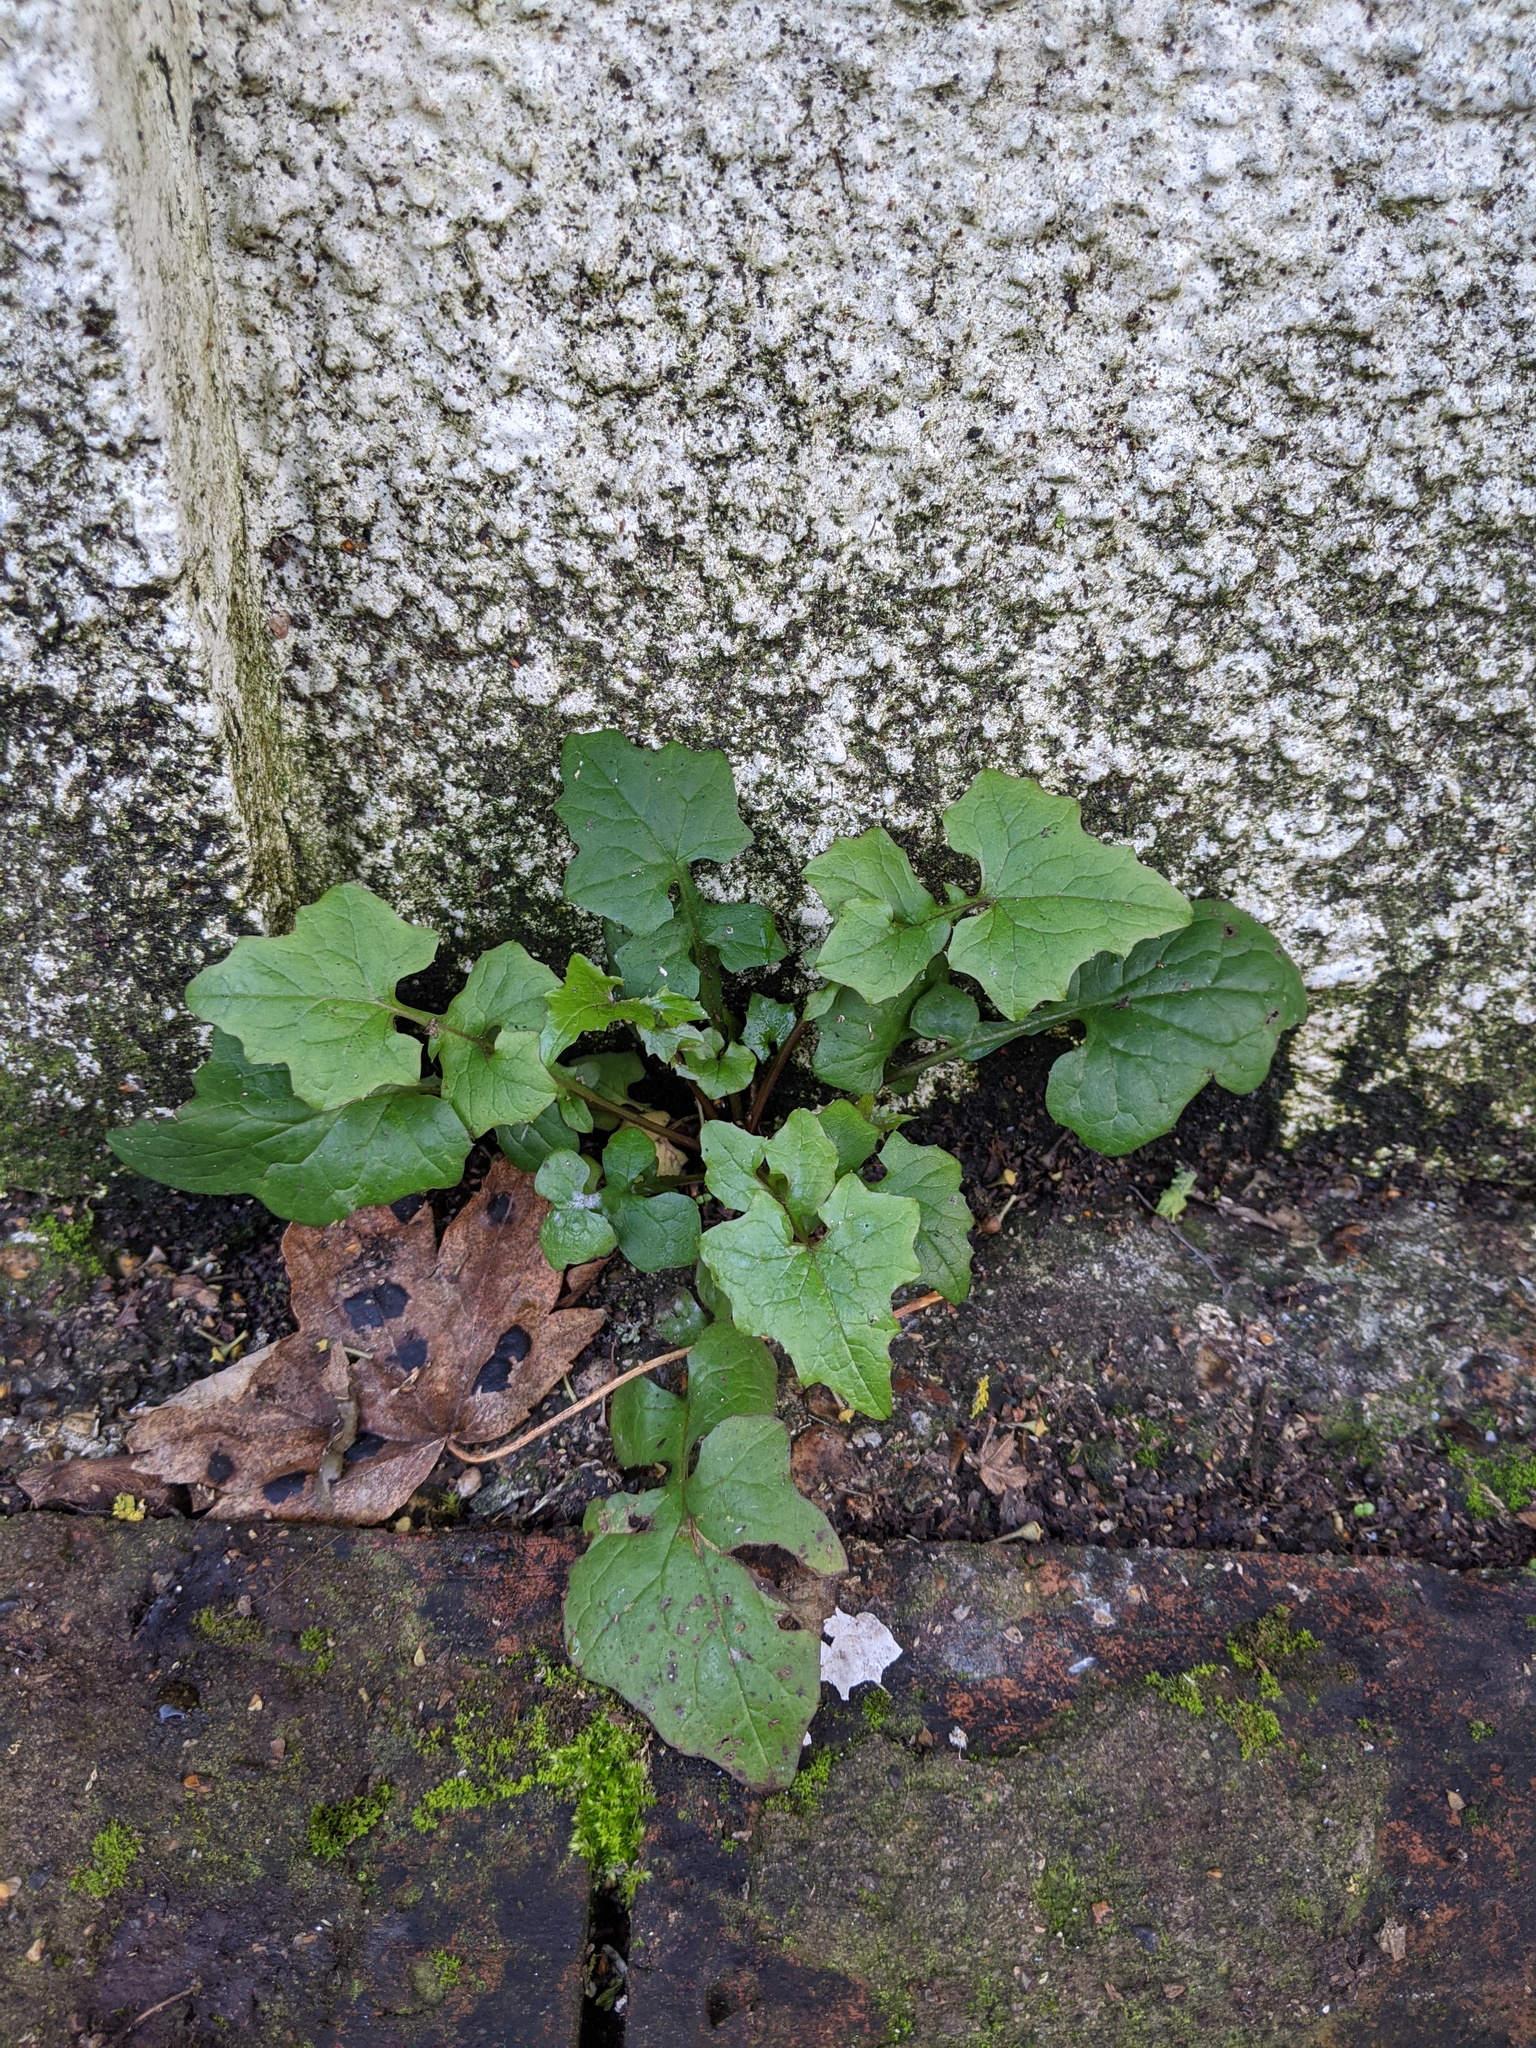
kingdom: Plantae
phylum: Tracheophyta
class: Magnoliopsida
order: Asterales
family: Asteraceae
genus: Mycelis
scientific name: Mycelis muralis
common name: Wall lettuce
